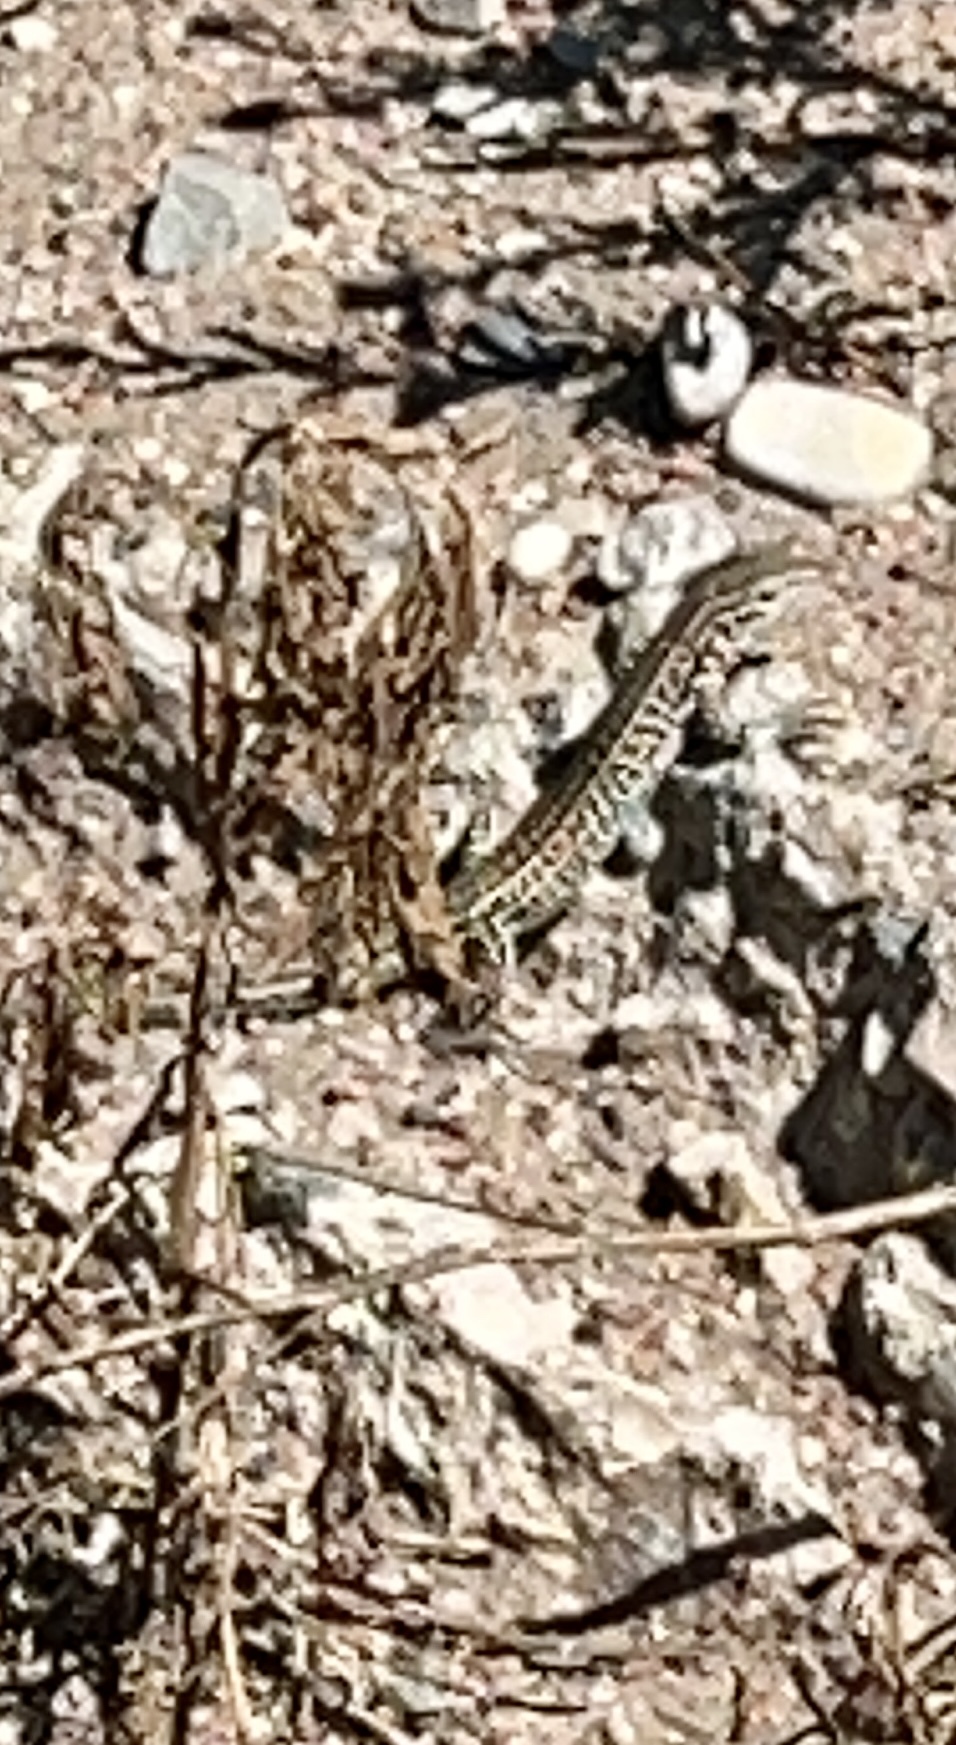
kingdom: Animalia
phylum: Chordata
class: Squamata
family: Teiidae
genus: Aspidoscelis
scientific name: Aspidoscelis neotesselatus
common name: Colorado checkered whiptail
